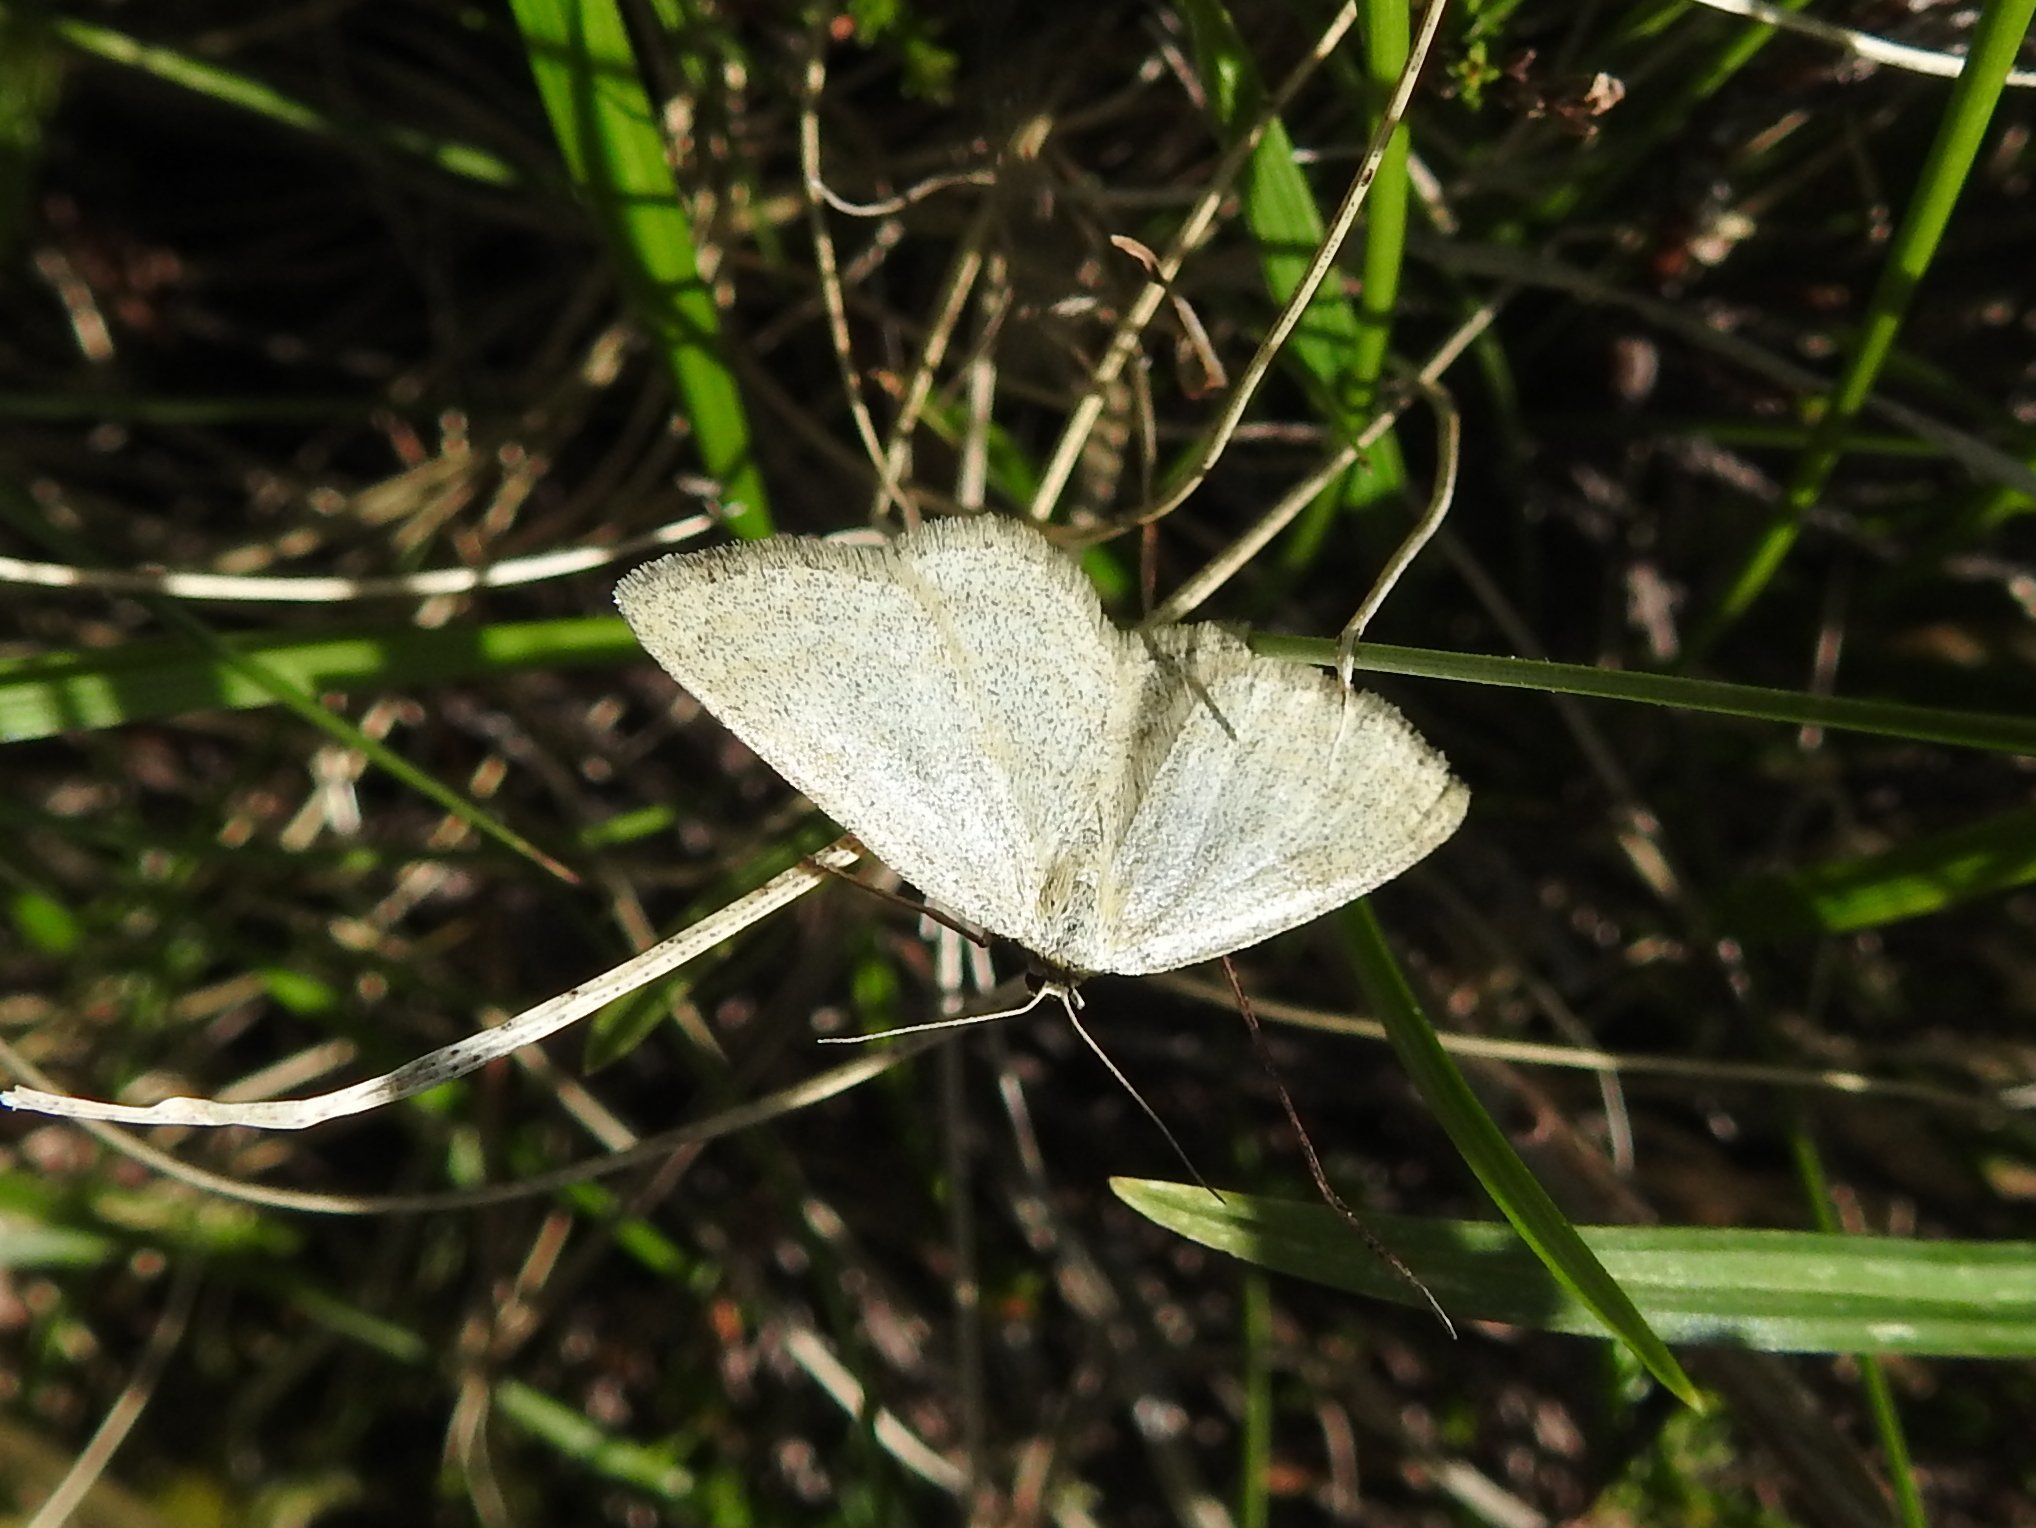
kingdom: Animalia
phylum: Arthropoda
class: Insecta
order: Lepidoptera
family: Geometridae
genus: Scopula
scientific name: Scopula ternata
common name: Smoky wave
